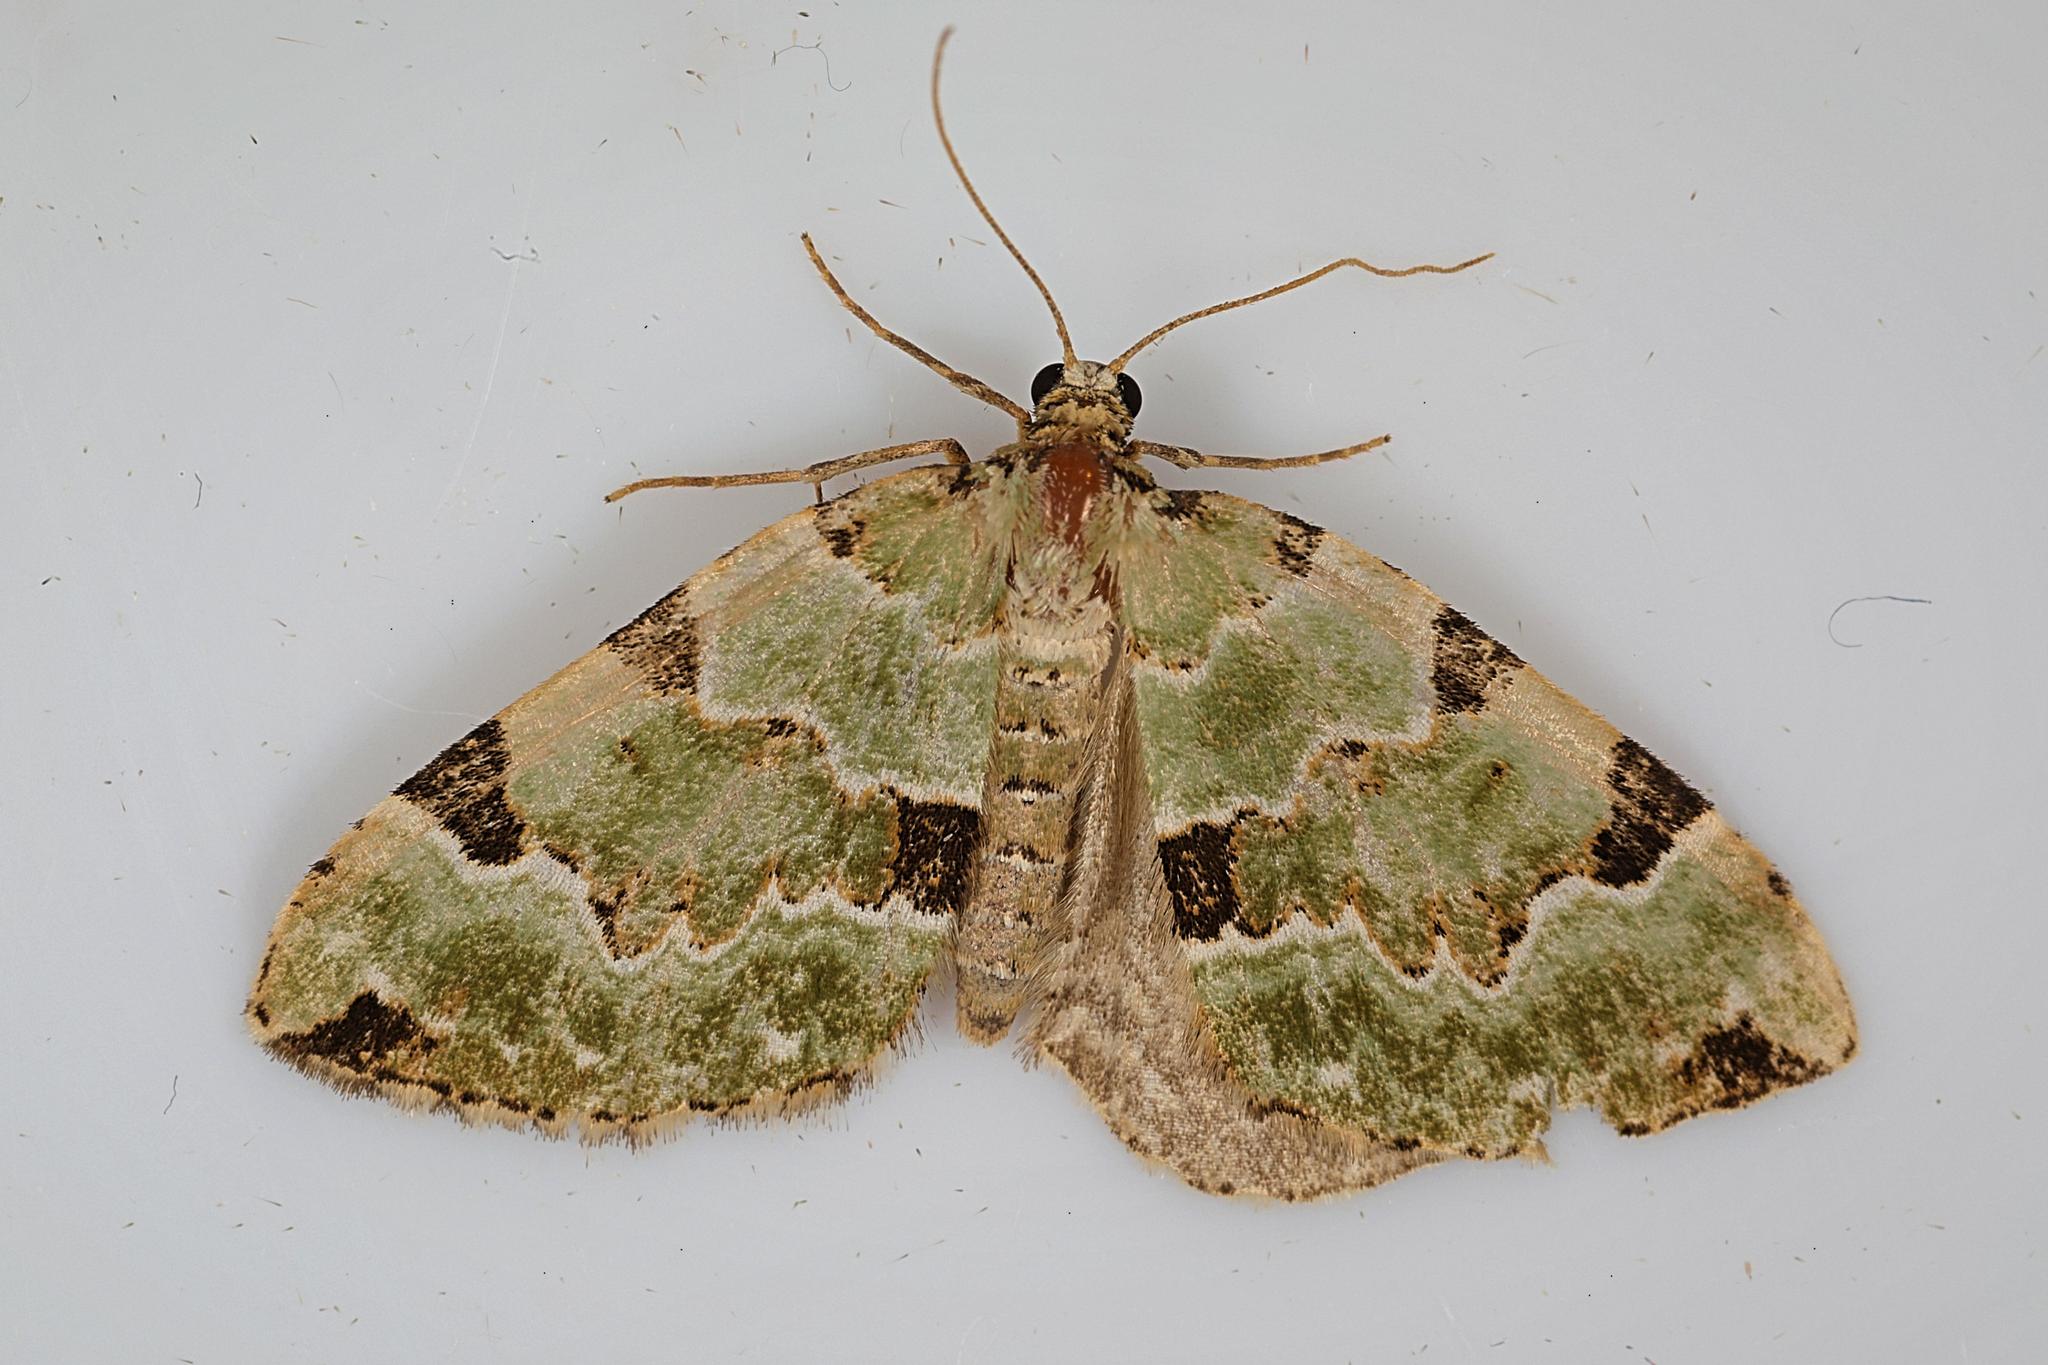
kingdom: Animalia
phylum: Arthropoda
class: Insecta
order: Lepidoptera
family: Geometridae
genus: Colostygia
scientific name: Colostygia pectinataria
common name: Green carpet
